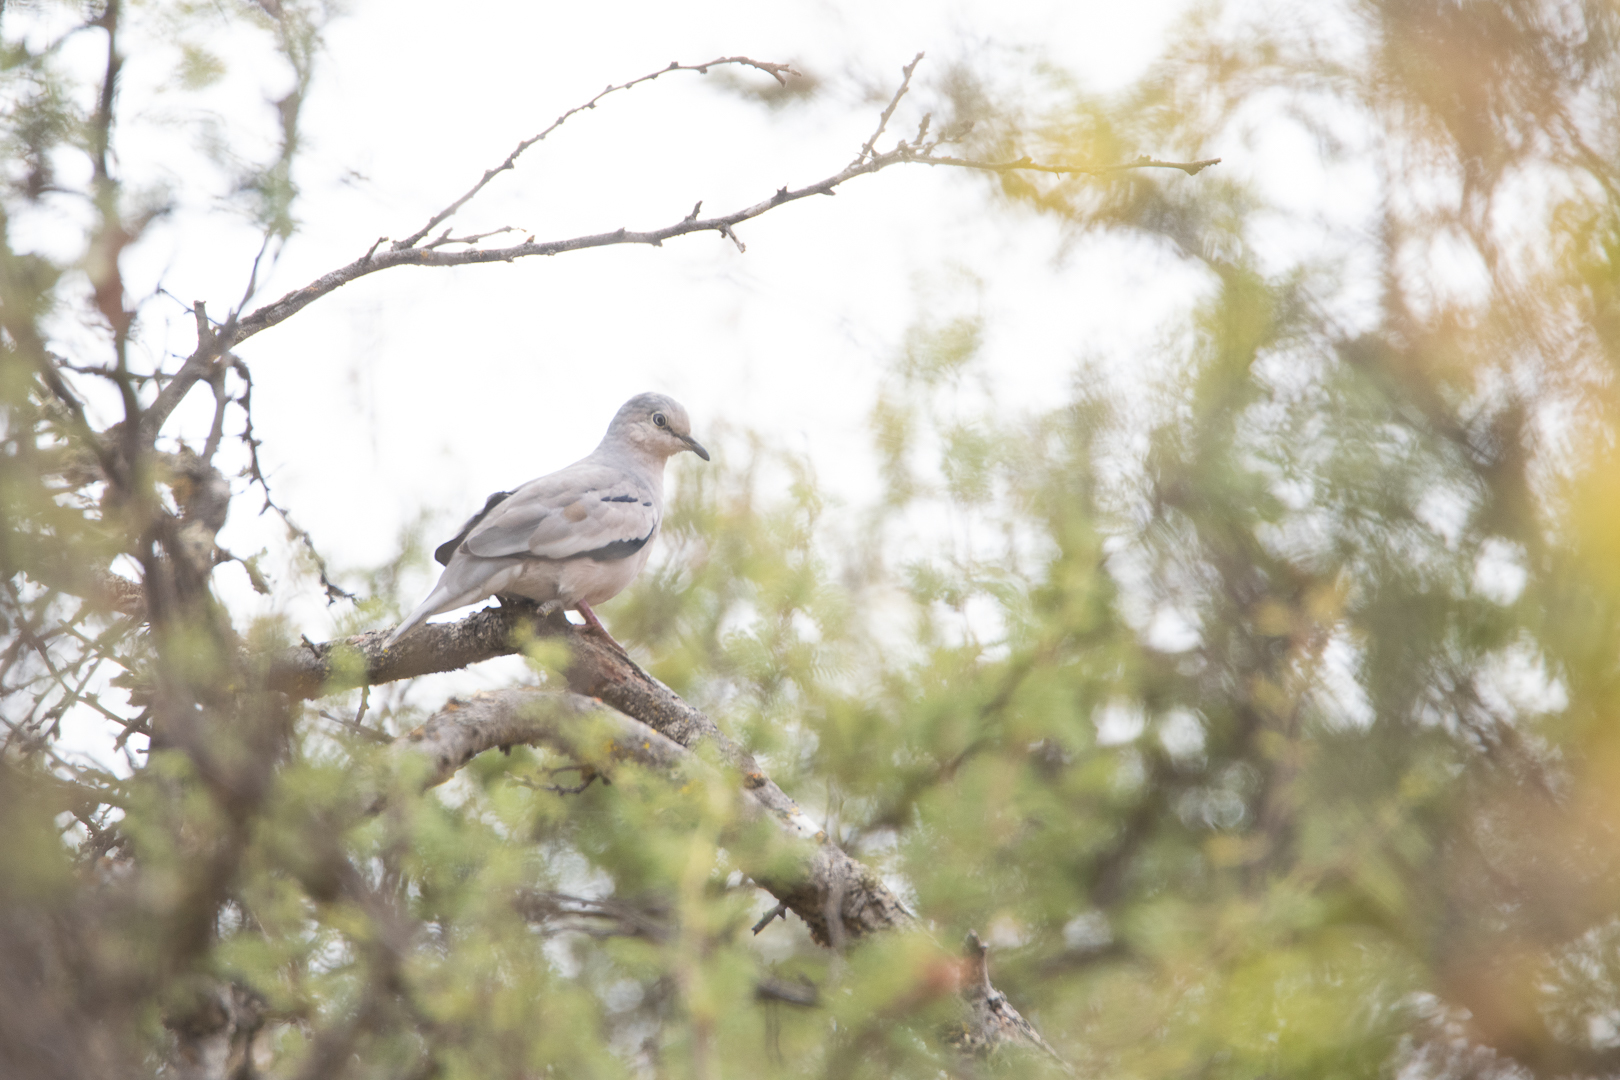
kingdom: Animalia
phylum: Chordata
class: Aves
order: Columbiformes
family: Columbidae
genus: Columbina
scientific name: Columbina picui
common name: Picui ground dove
